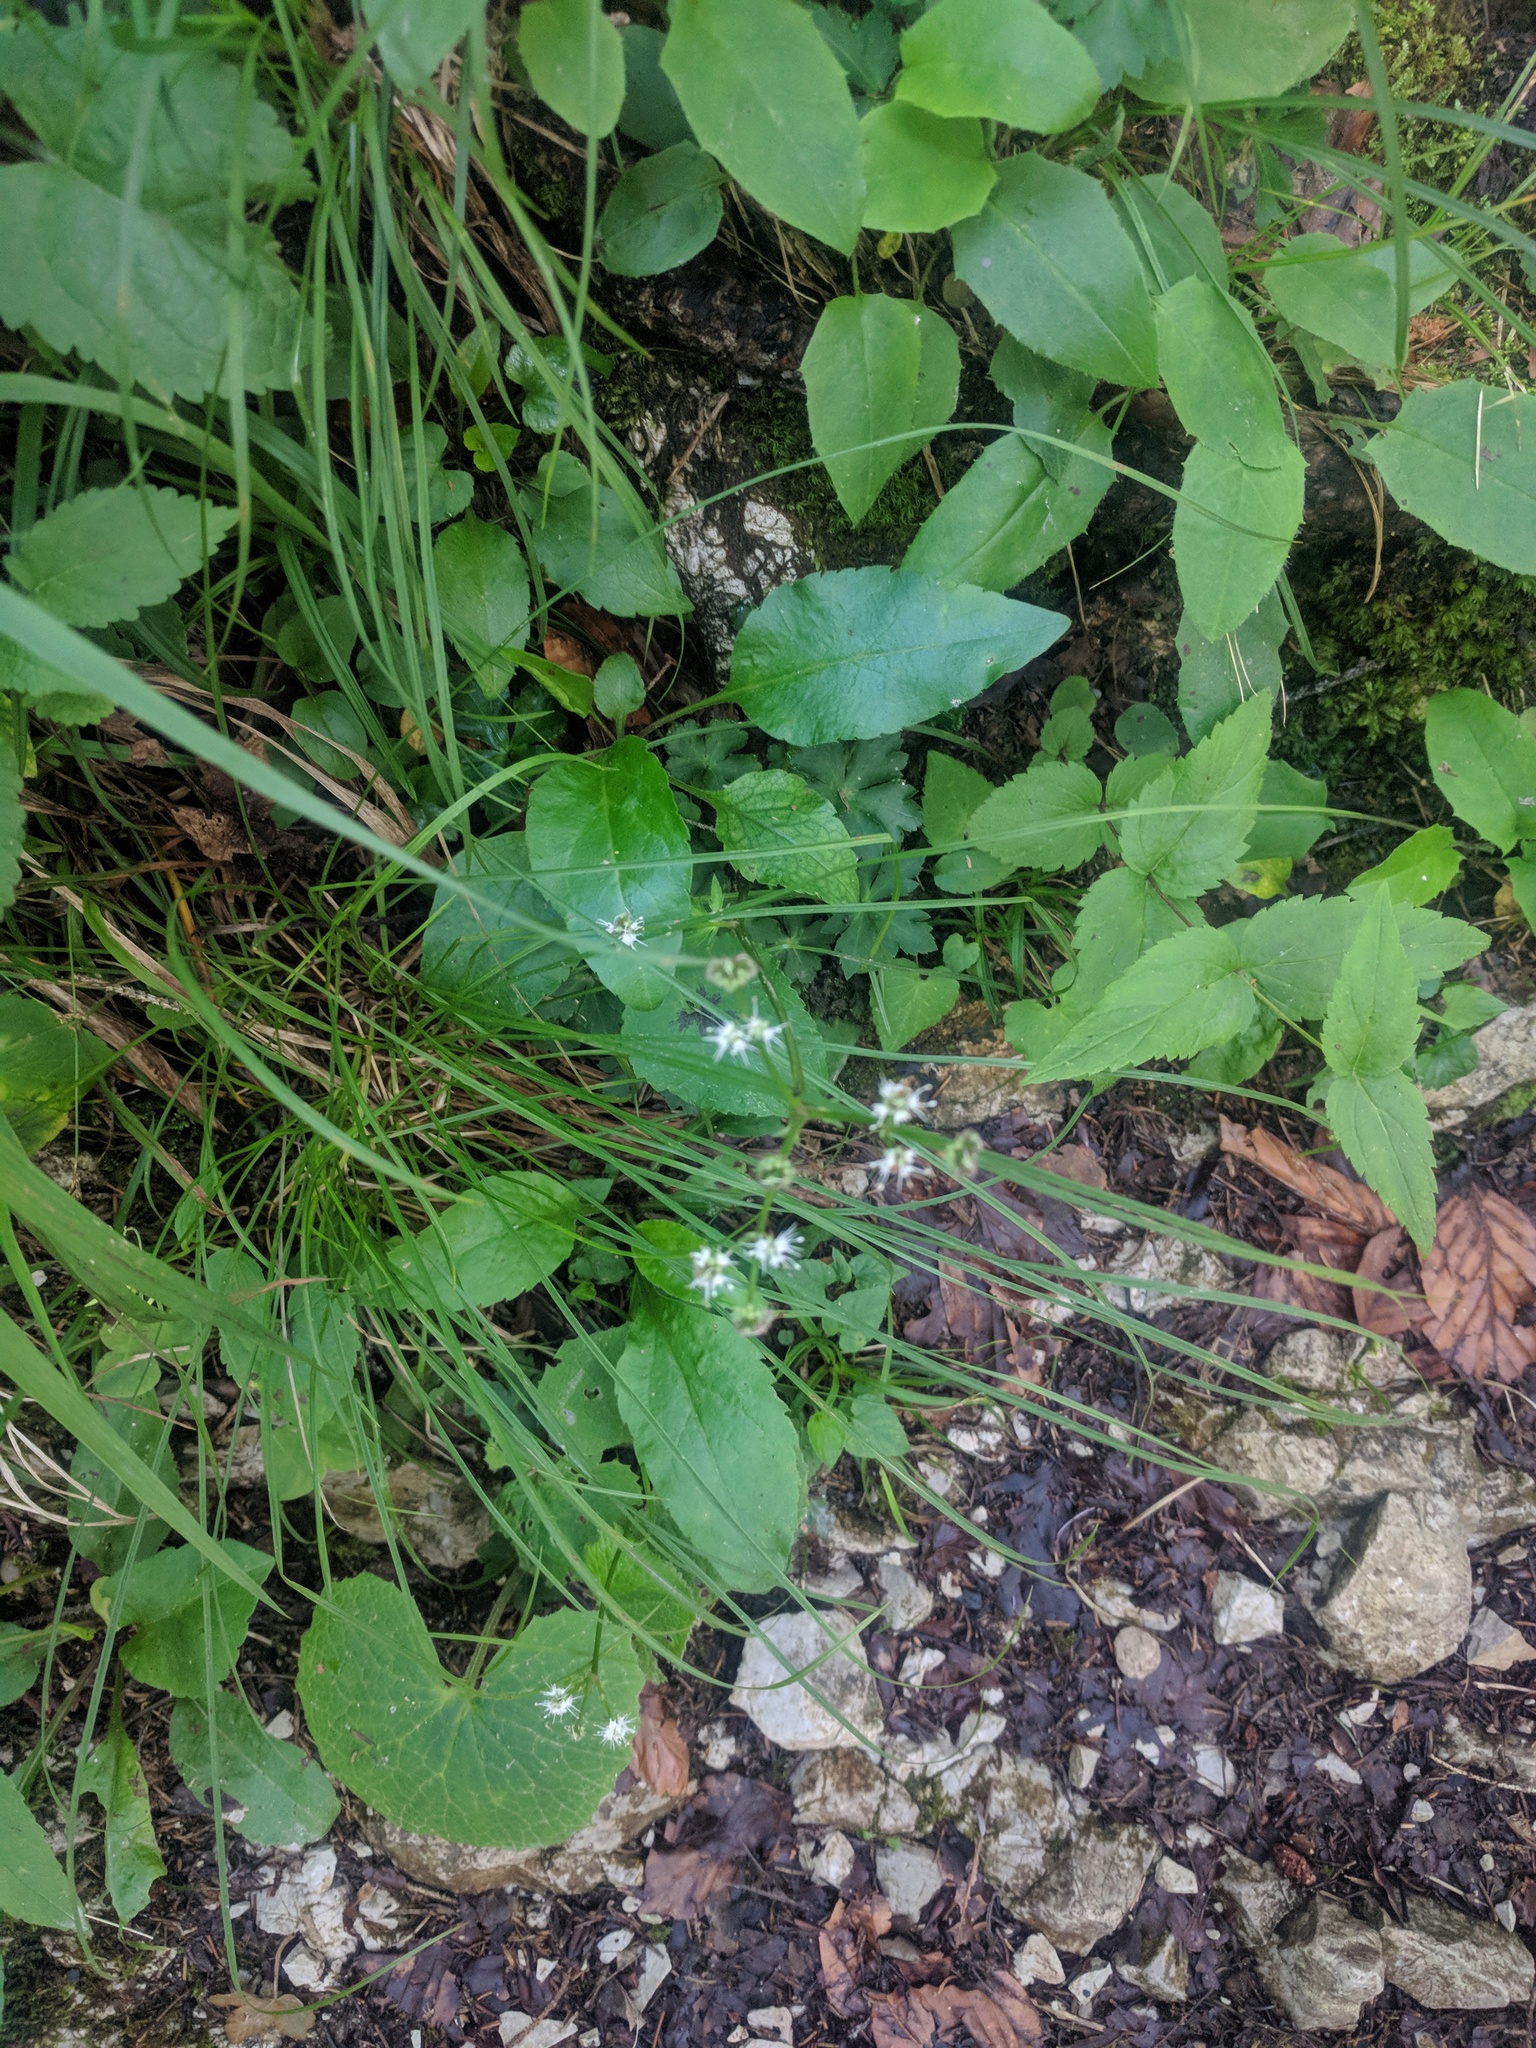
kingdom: Plantae
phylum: Tracheophyta
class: Magnoliopsida
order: Apiales
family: Apiaceae
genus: Sanicula
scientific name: Sanicula europaea
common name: Sanicle
